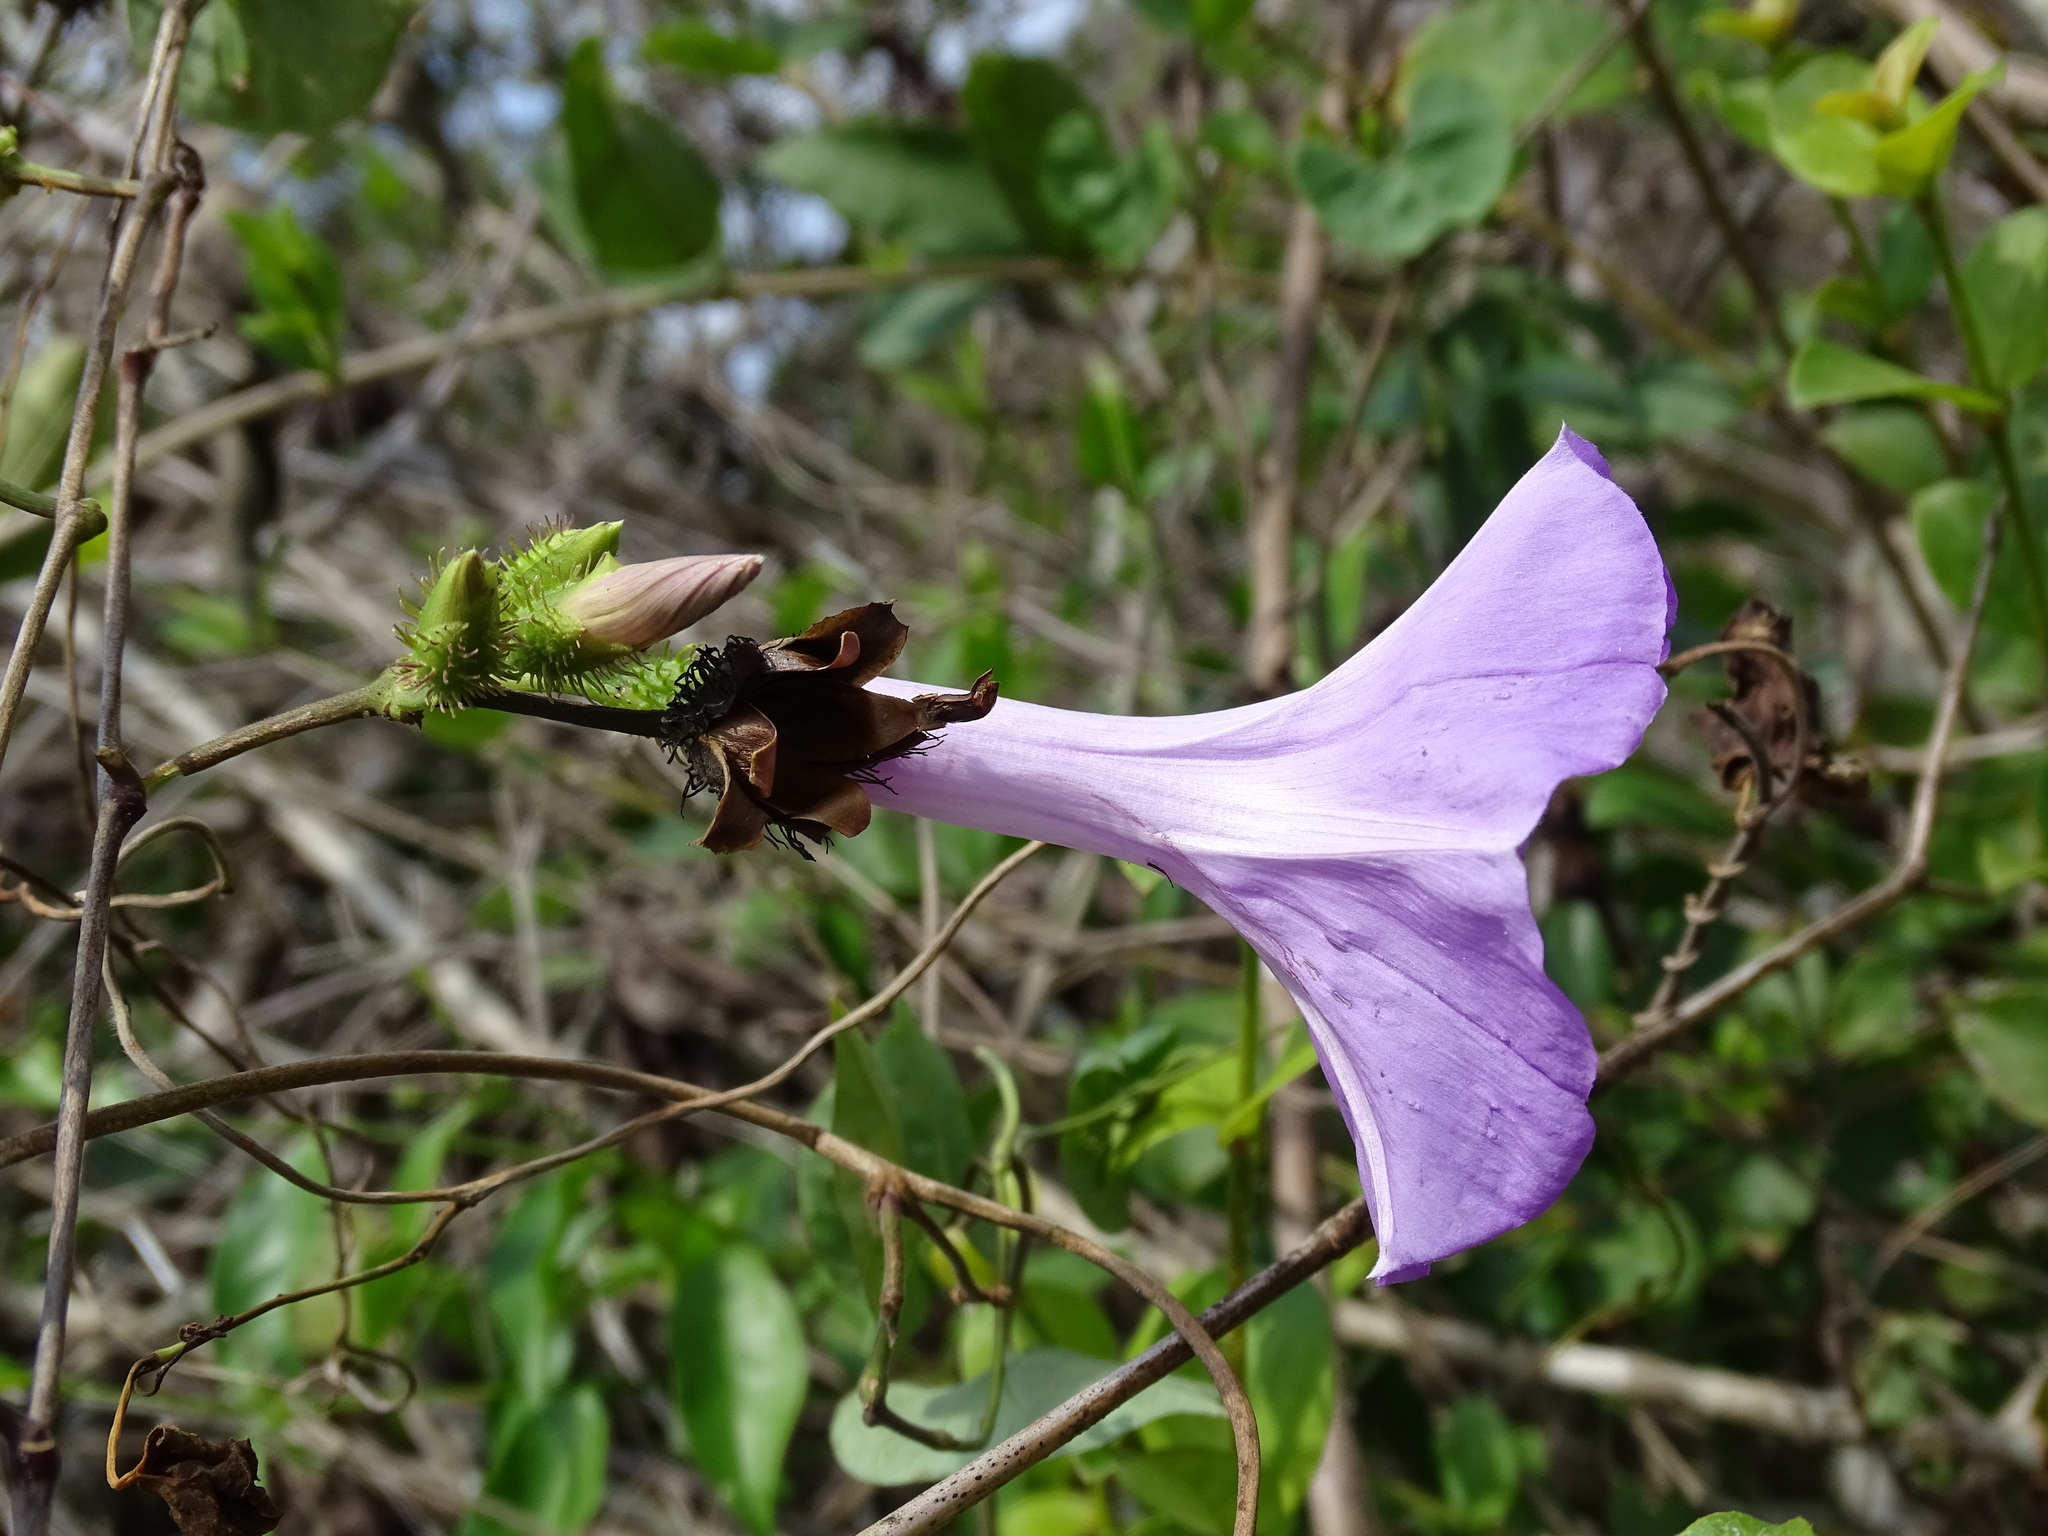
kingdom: Plantae
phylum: Tracheophyta
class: Magnoliopsida
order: Solanales
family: Convolvulaceae
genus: Ipomoea
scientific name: Ipomoea crinicalyx
